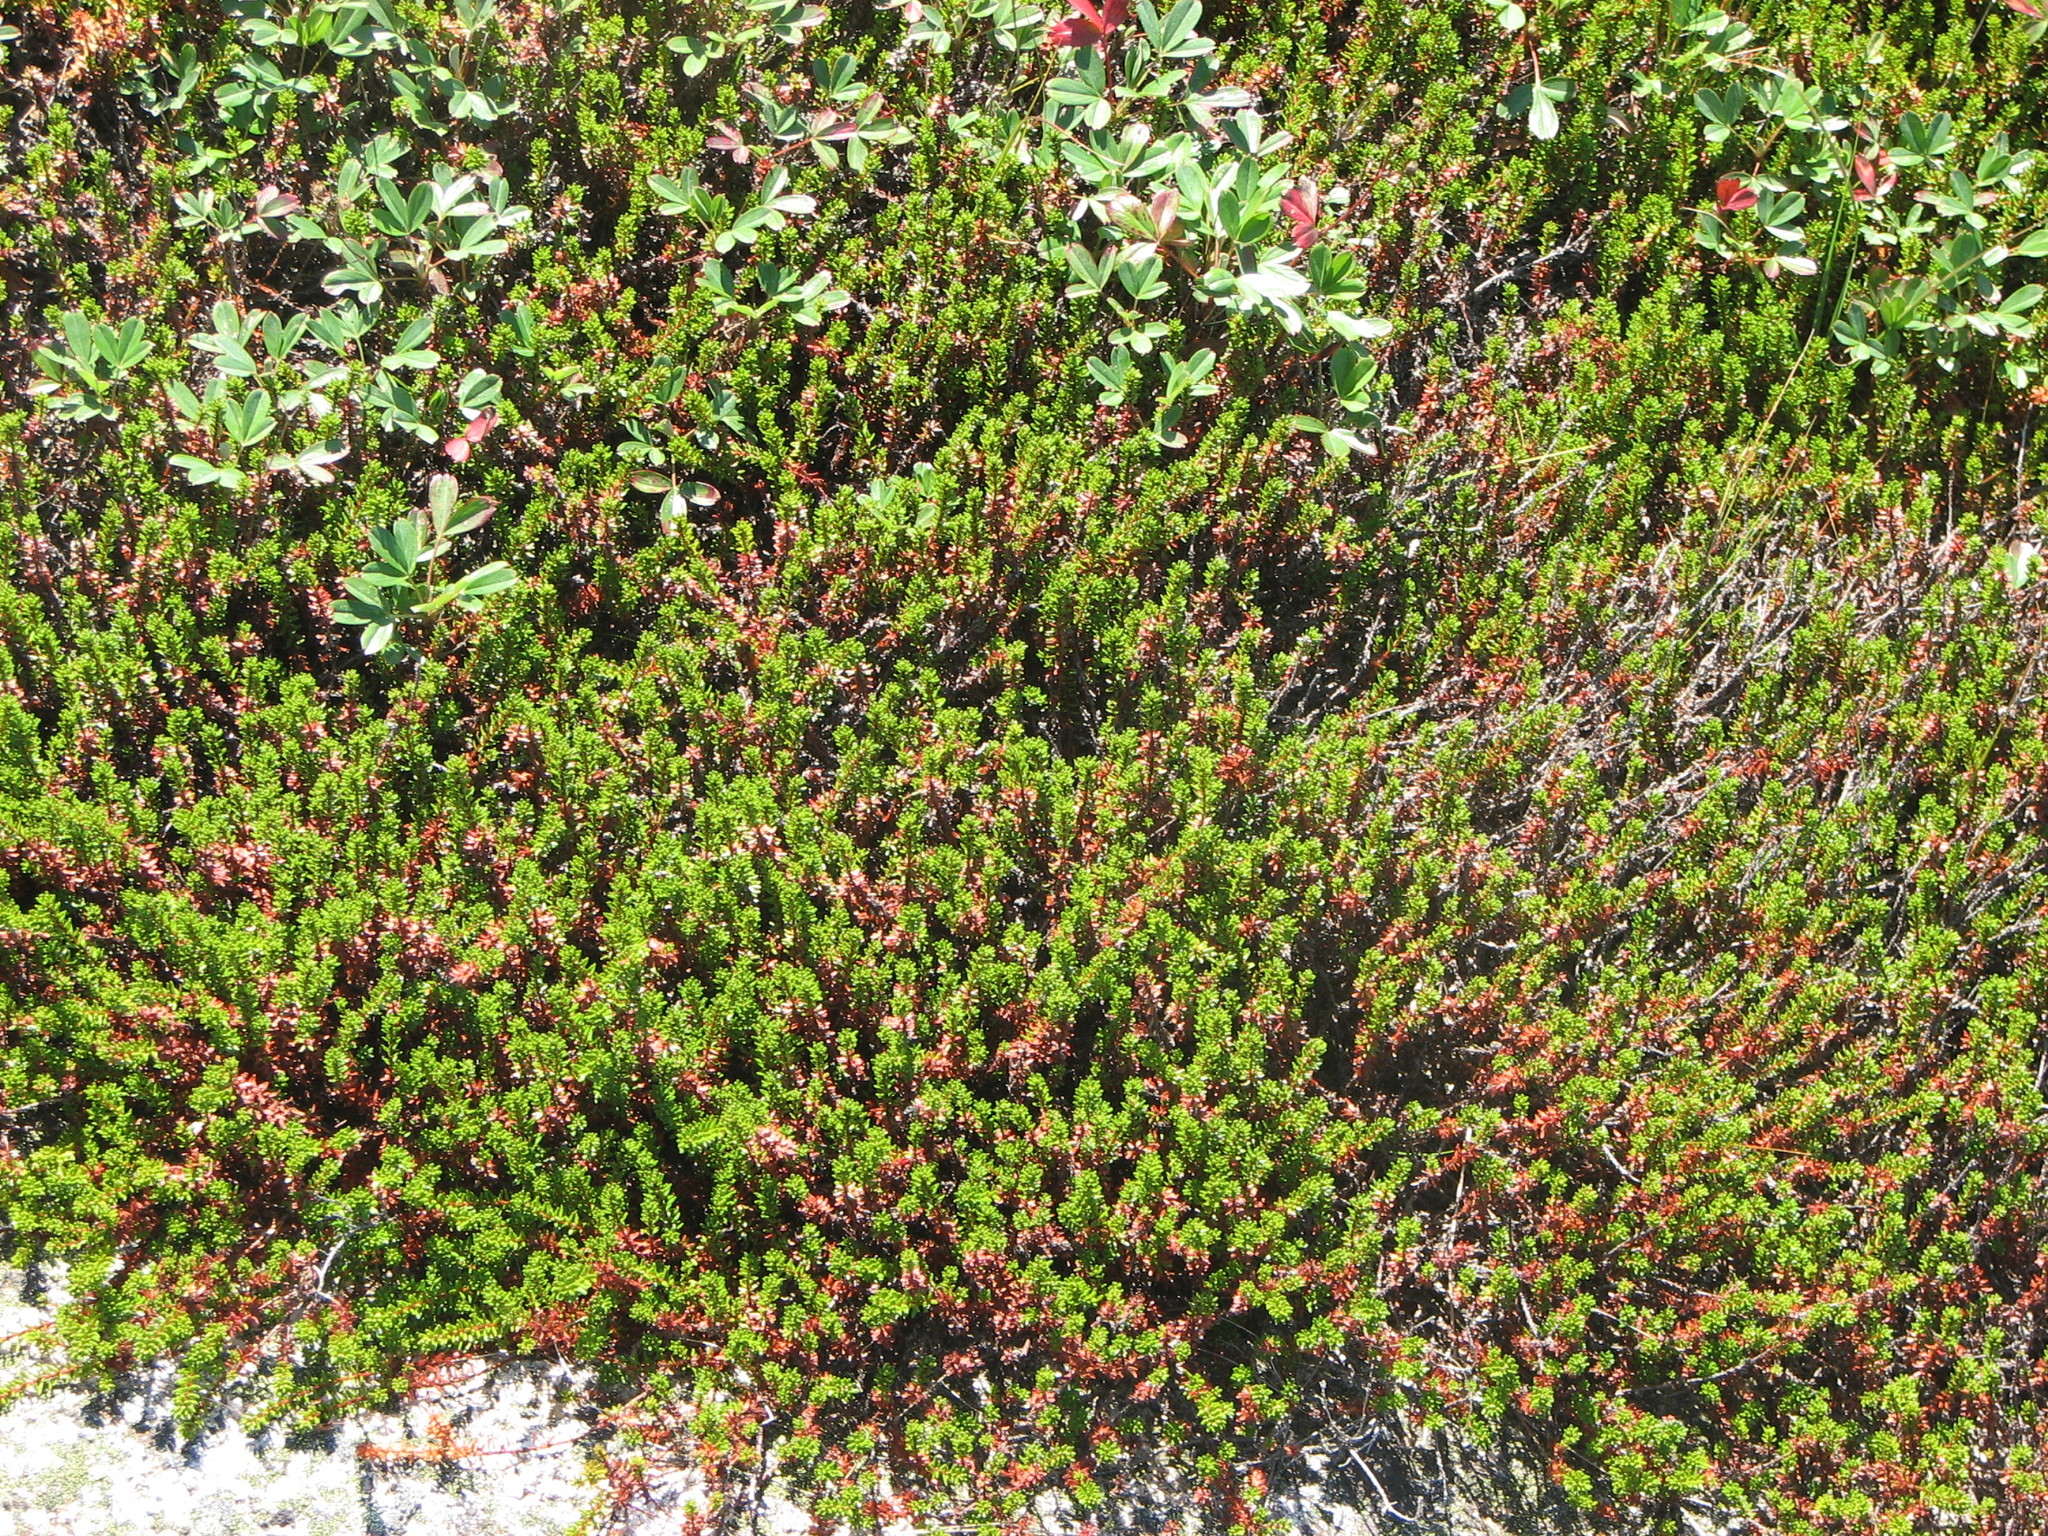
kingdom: Plantae
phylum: Tracheophyta
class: Magnoliopsida
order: Ericales
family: Ericaceae
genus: Empetrum
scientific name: Empetrum nigrum
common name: Black crowberry
